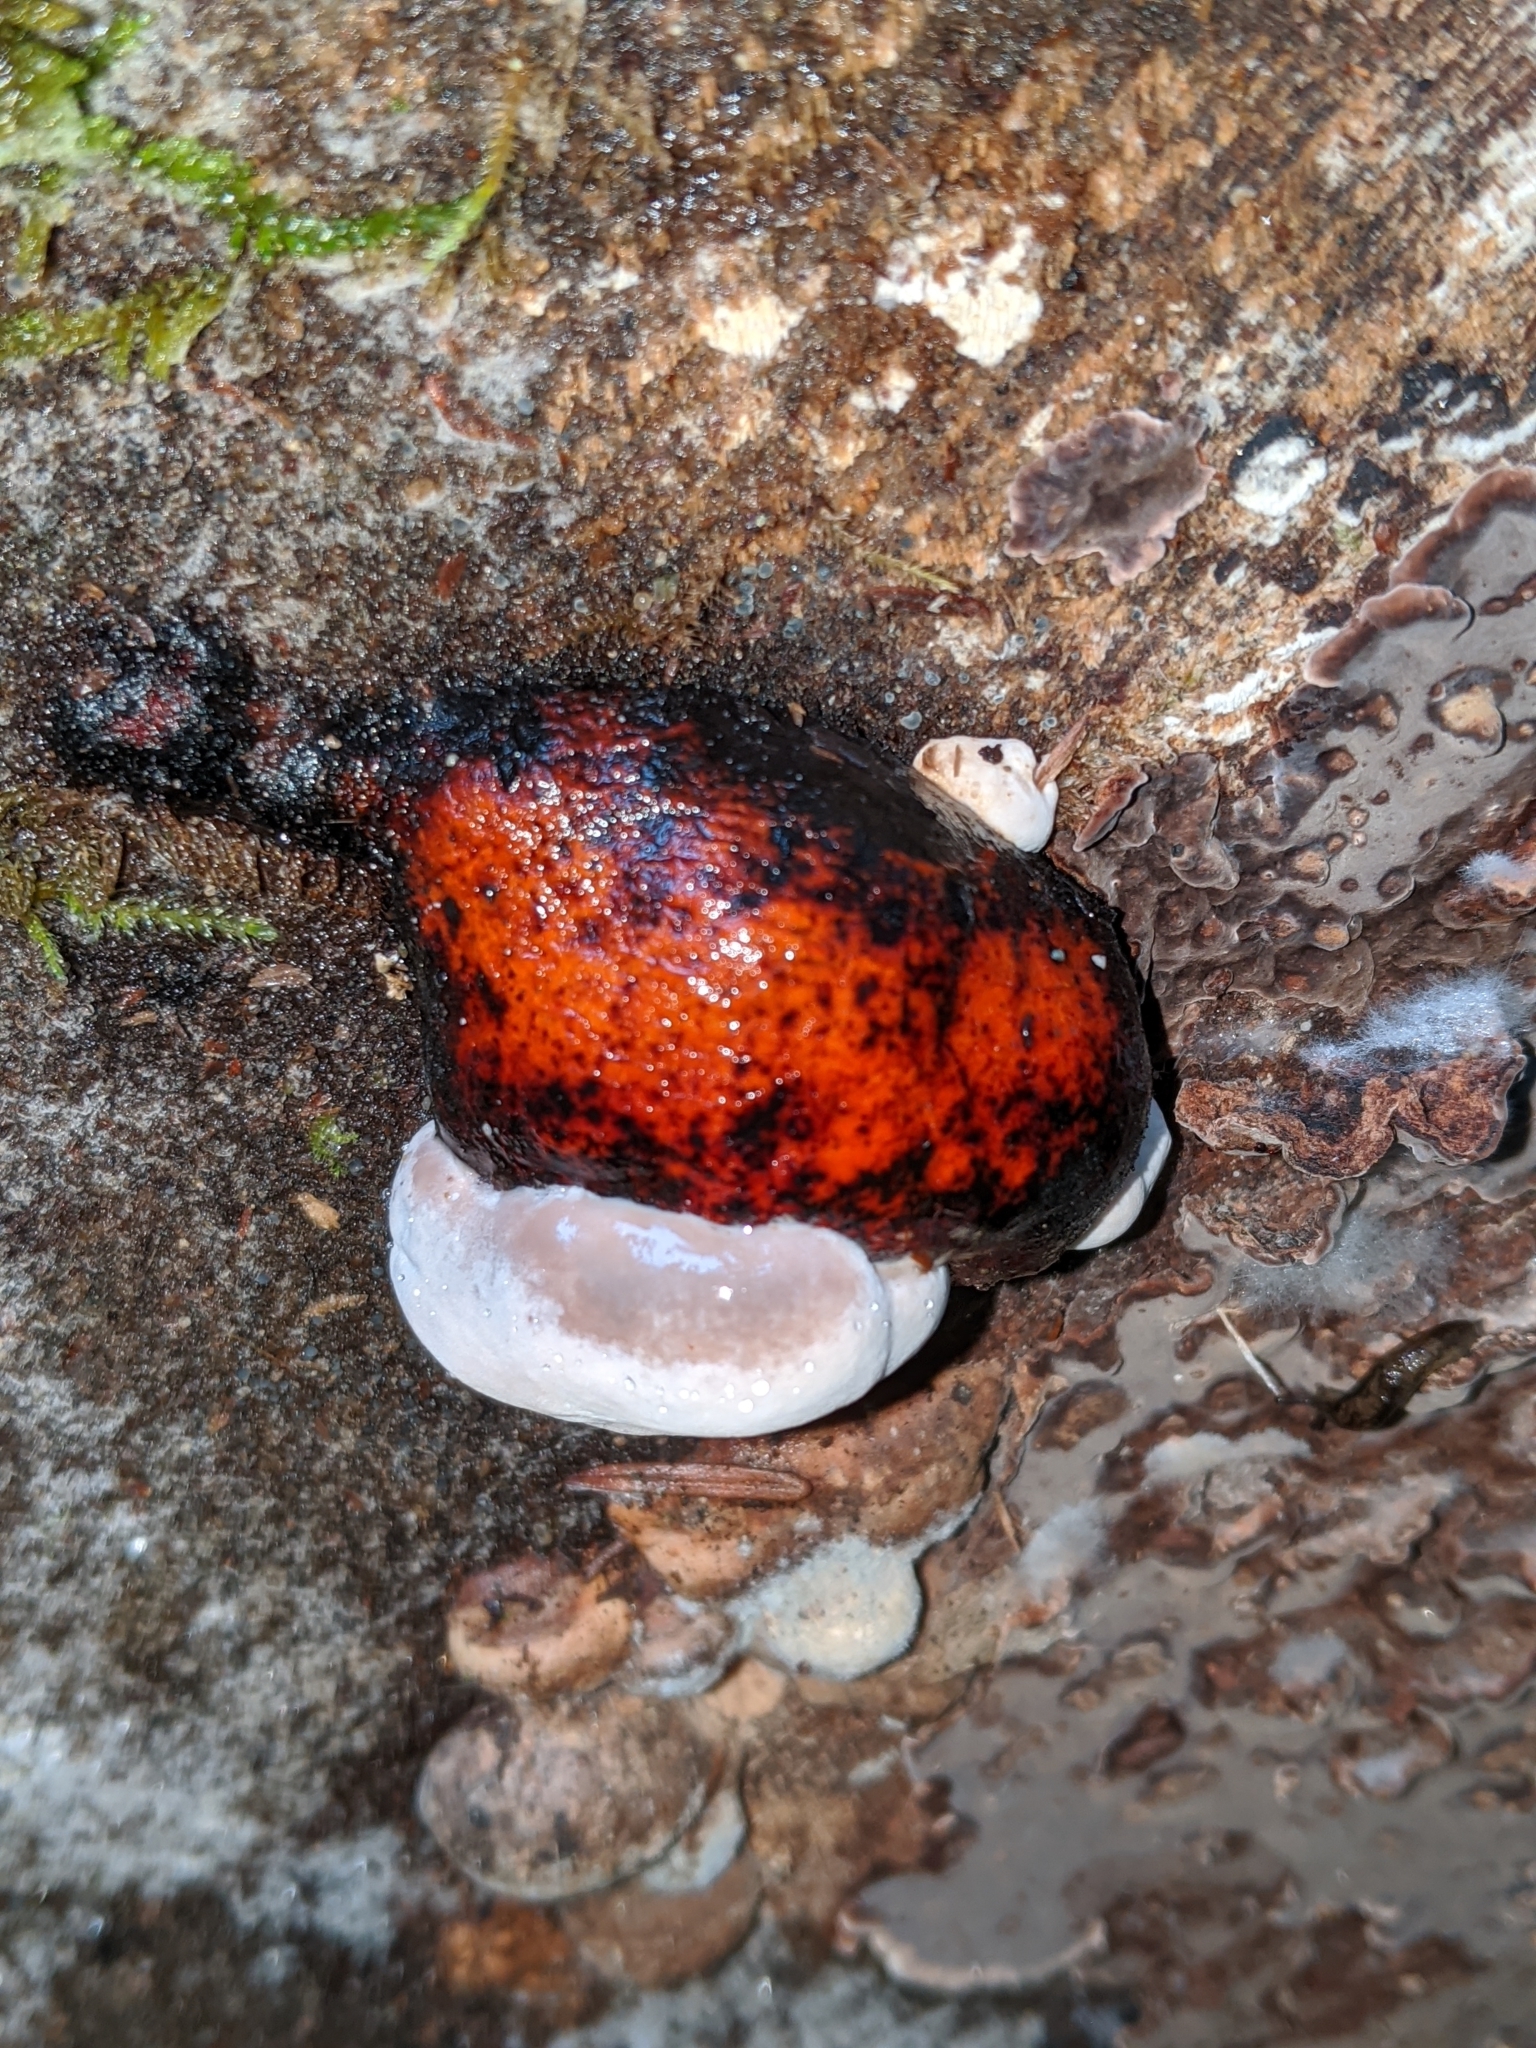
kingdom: Fungi
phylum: Basidiomycota
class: Agaricomycetes
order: Polyporales
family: Fomitopsidaceae
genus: Fomitopsis
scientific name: Fomitopsis mounceae
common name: Northern red belt
